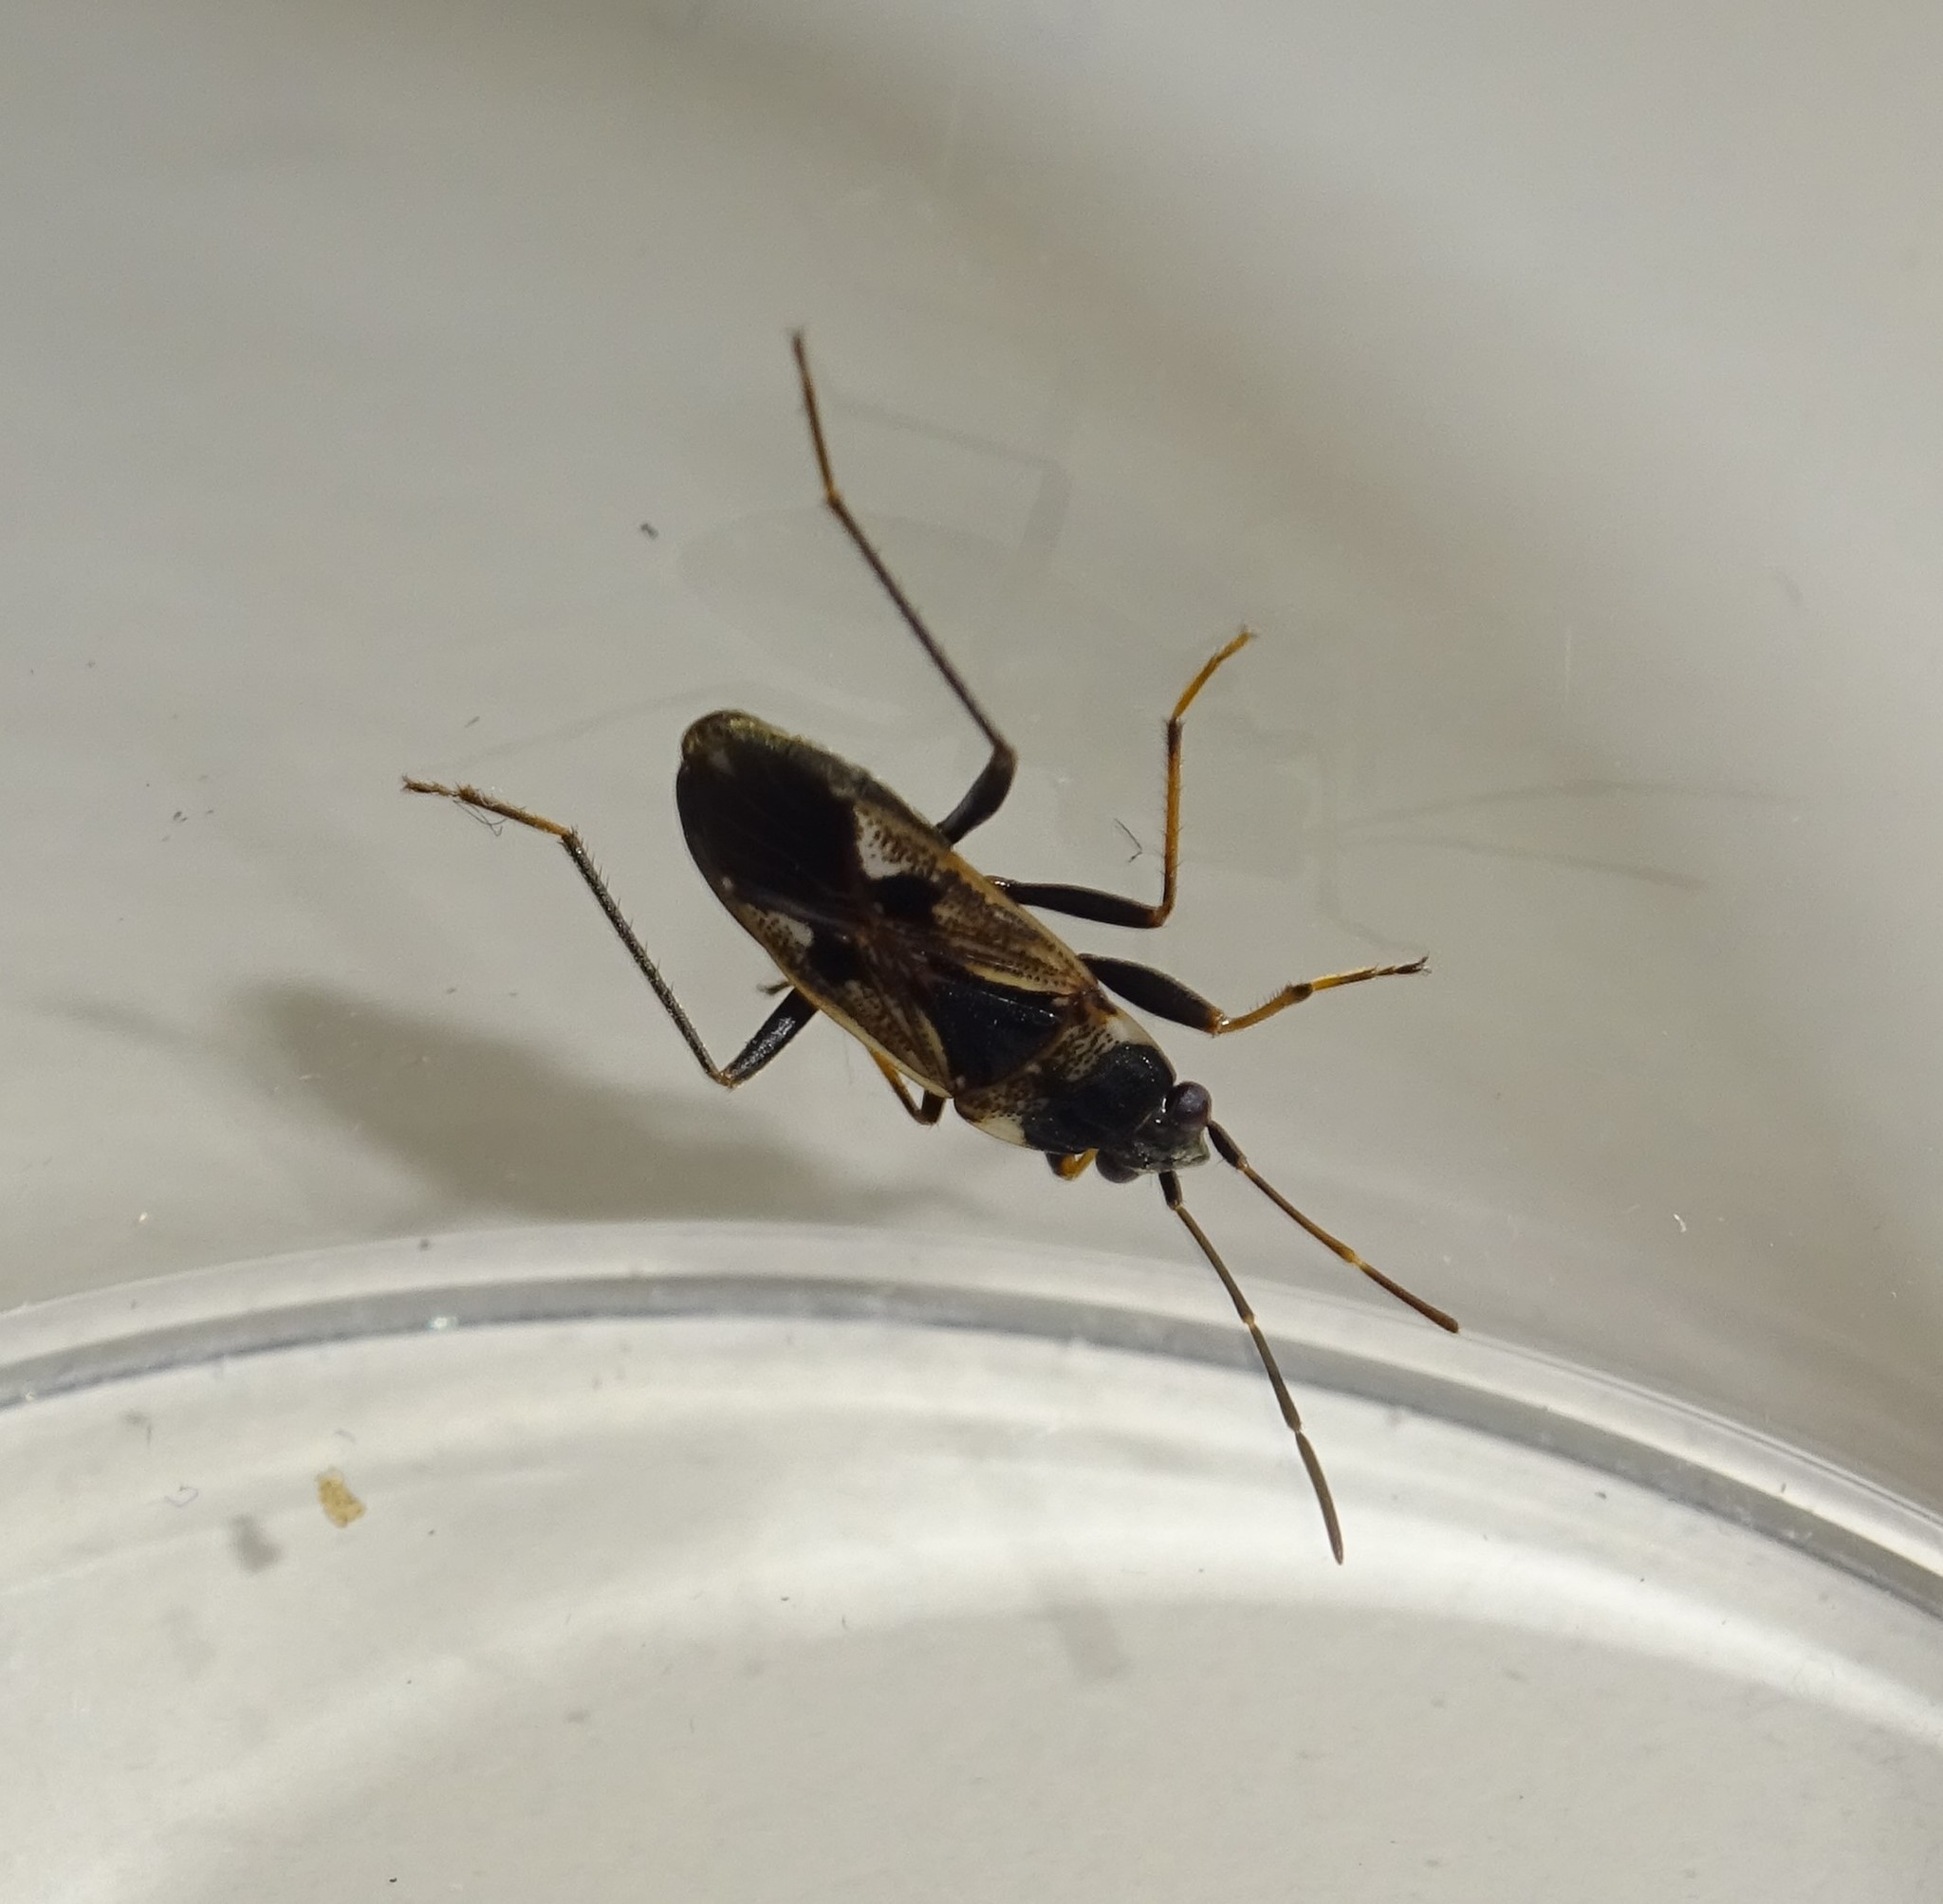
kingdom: Animalia
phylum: Arthropoda
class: Insecta
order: Hemiptera
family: Rhyparochromidae
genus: Rhyparochromus
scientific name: Rhyparochromus vulgaris
